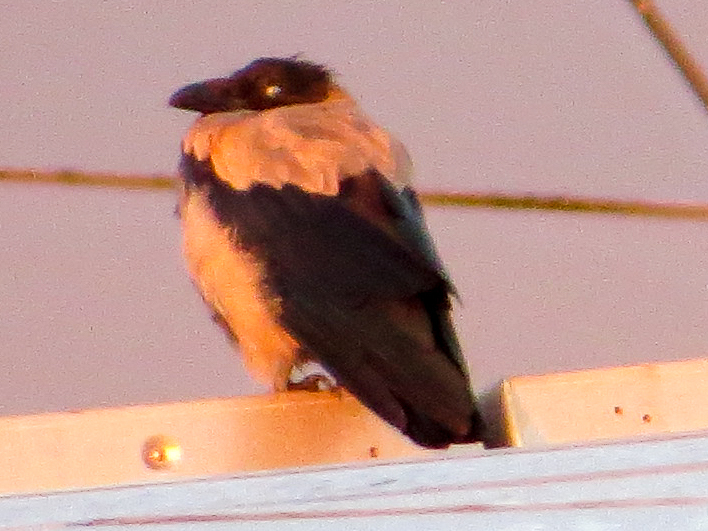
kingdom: Animalia
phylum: Chordata
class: Aves
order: Passeriformes
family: Corvidae
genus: Corvus
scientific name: Corvus cornix
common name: Hooded crow
